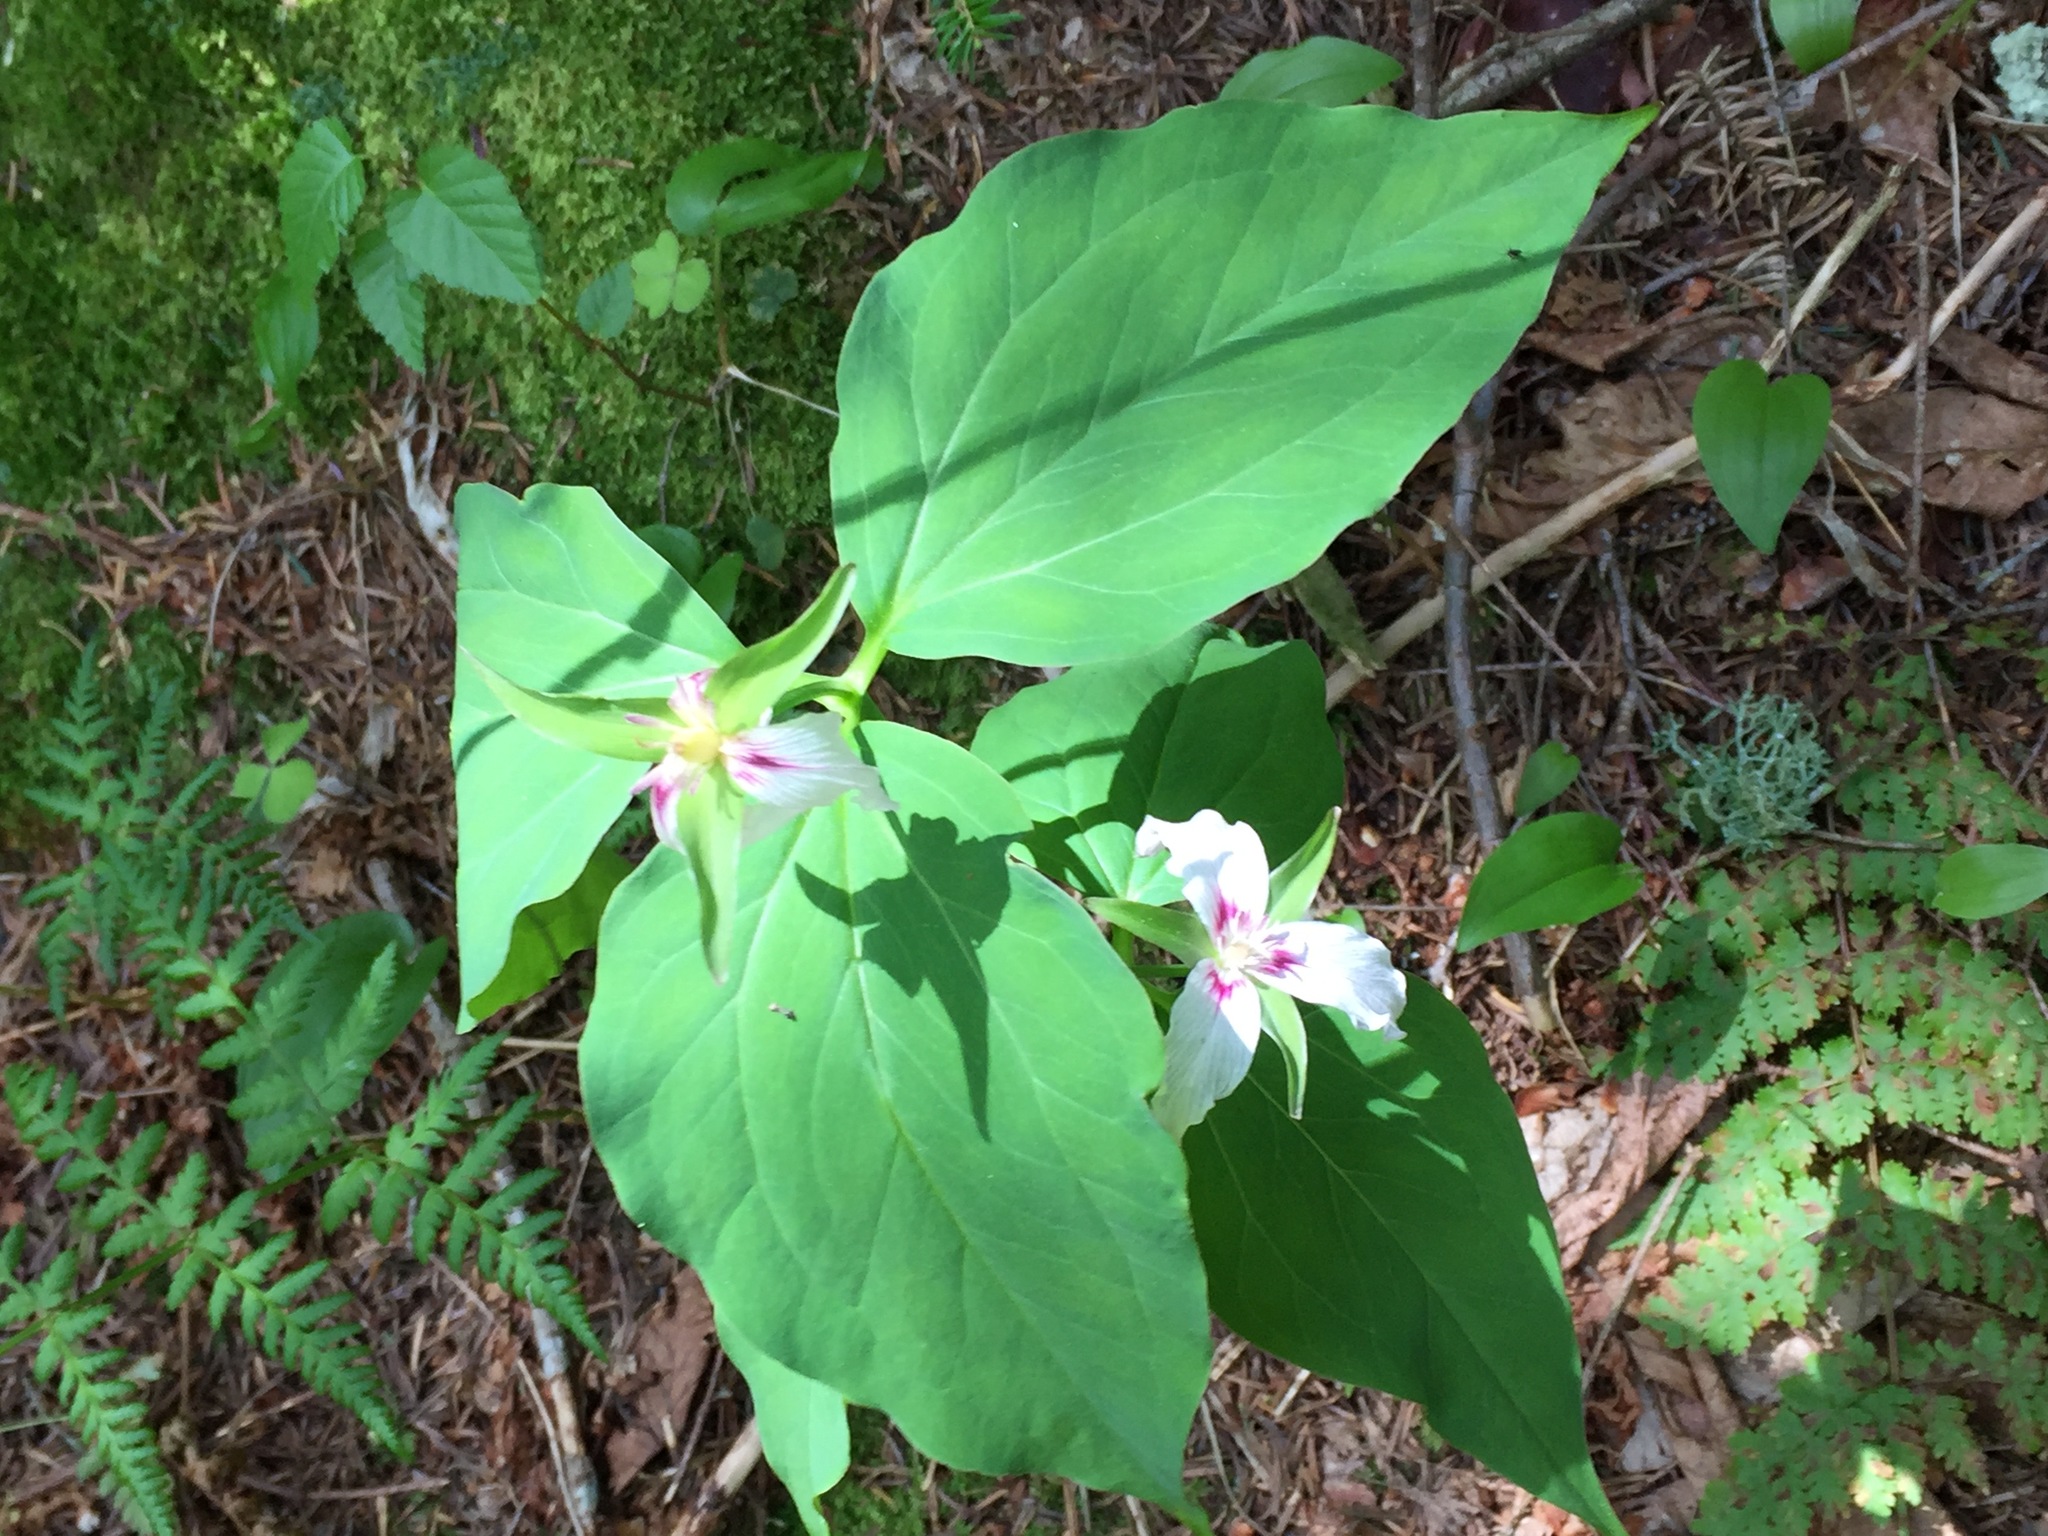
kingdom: Plantae
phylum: Tracheophyta
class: Liliopsida
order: Liliales
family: Melanthiaceae
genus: Trillium
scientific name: Trillium undulatum
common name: Paint trillium
